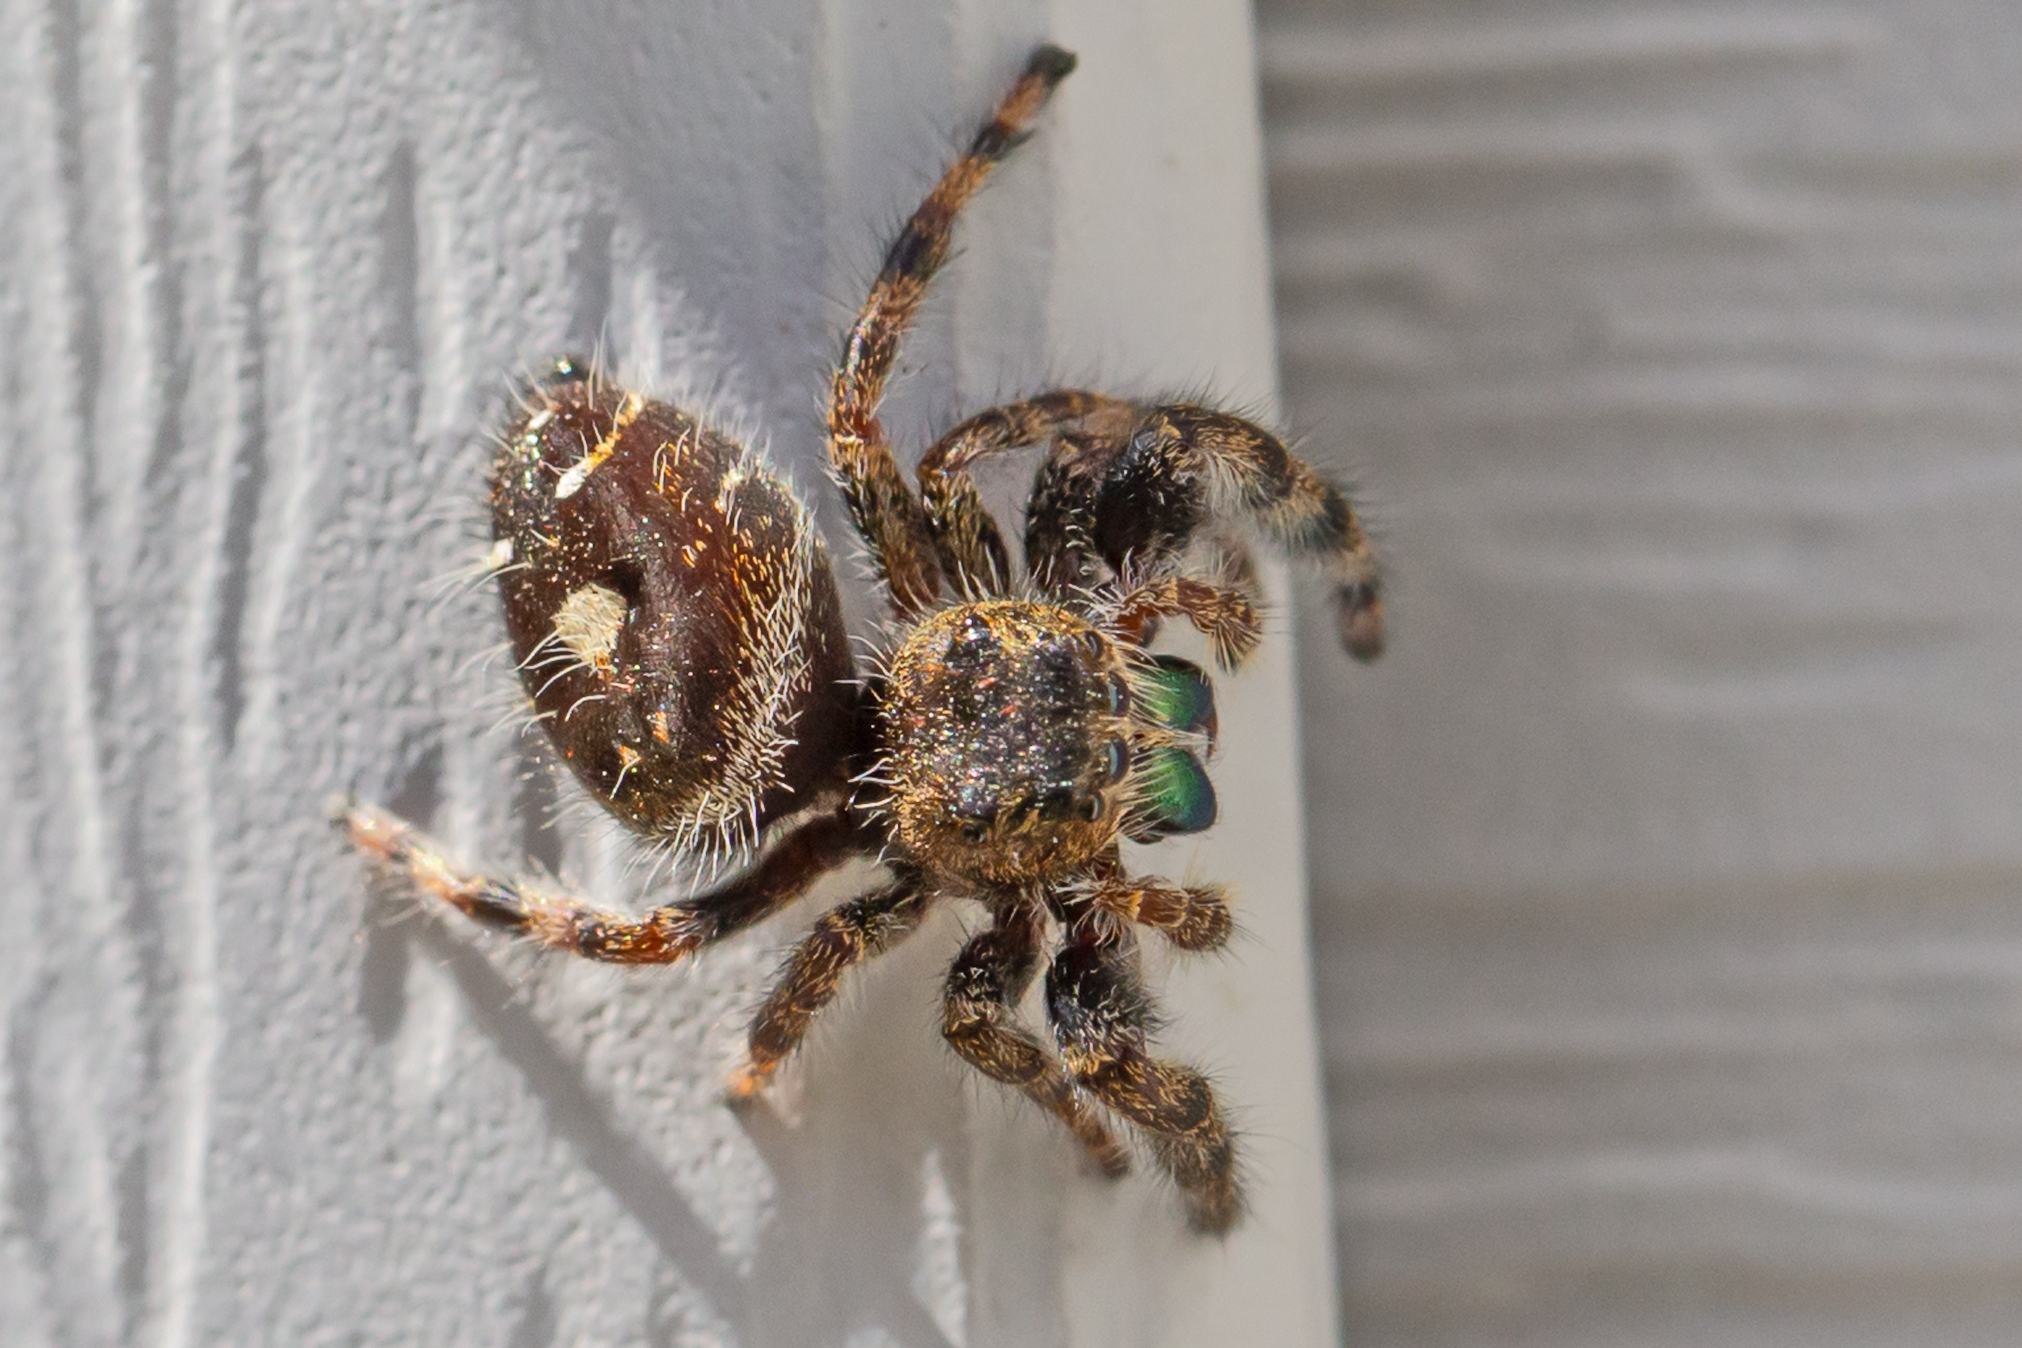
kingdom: Animalia
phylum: Arthropoda
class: Arachnida
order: Araneae
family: Salticidae
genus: Phidippus
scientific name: Phidippus audax
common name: Bold jumper
